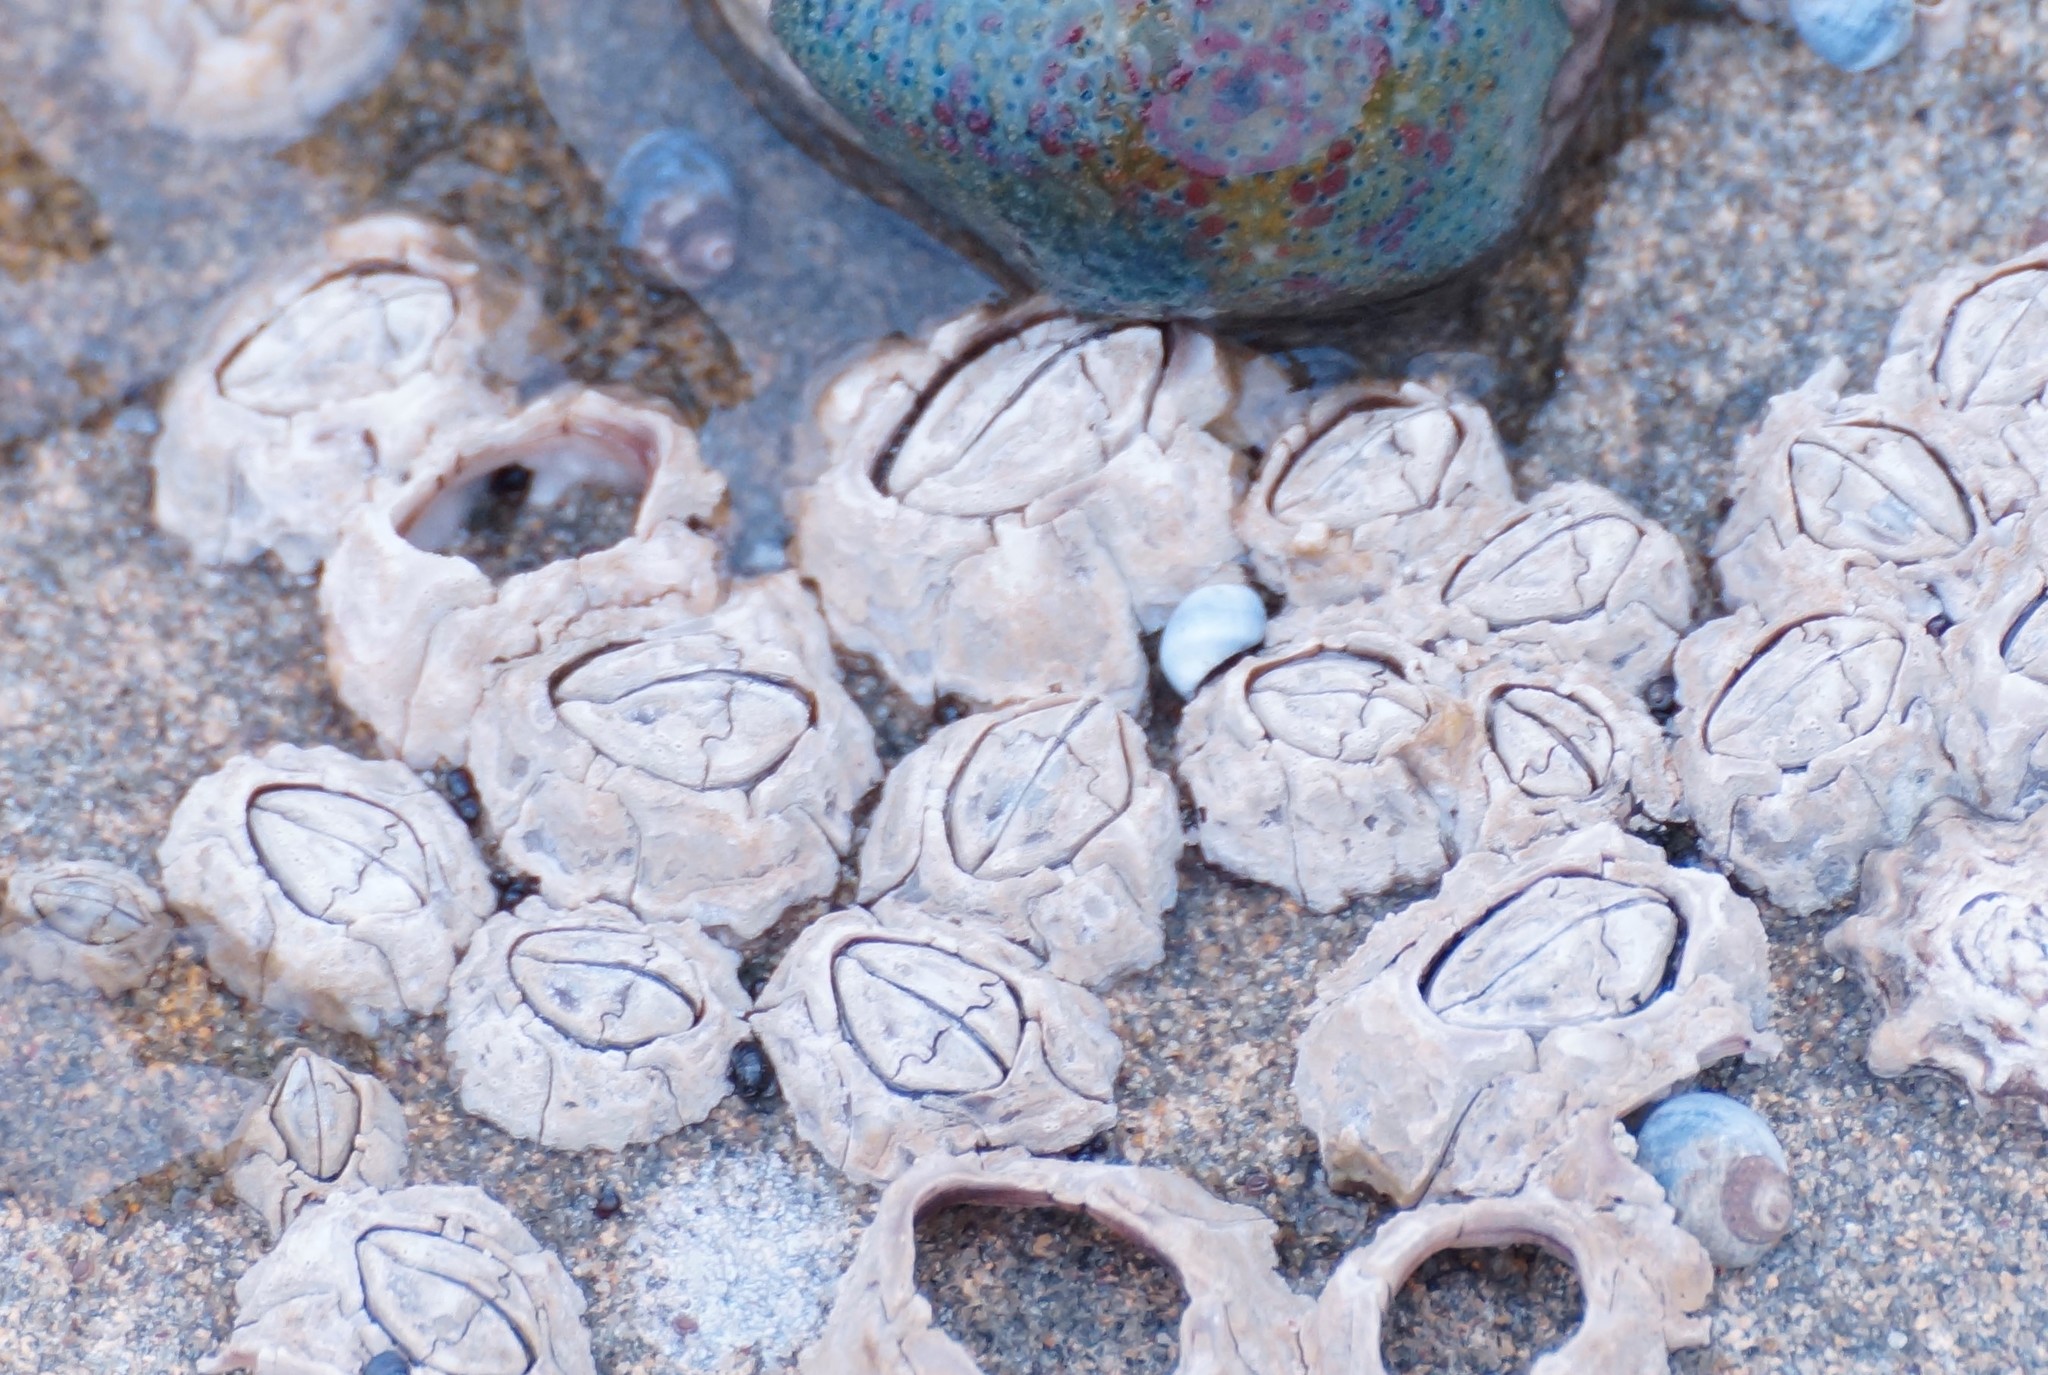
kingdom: Animalia
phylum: Arthropoda
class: Maxillopoda
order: Sessilia
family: Chthamalidae
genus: Chthamalus
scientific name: Chthamalus antennatus
